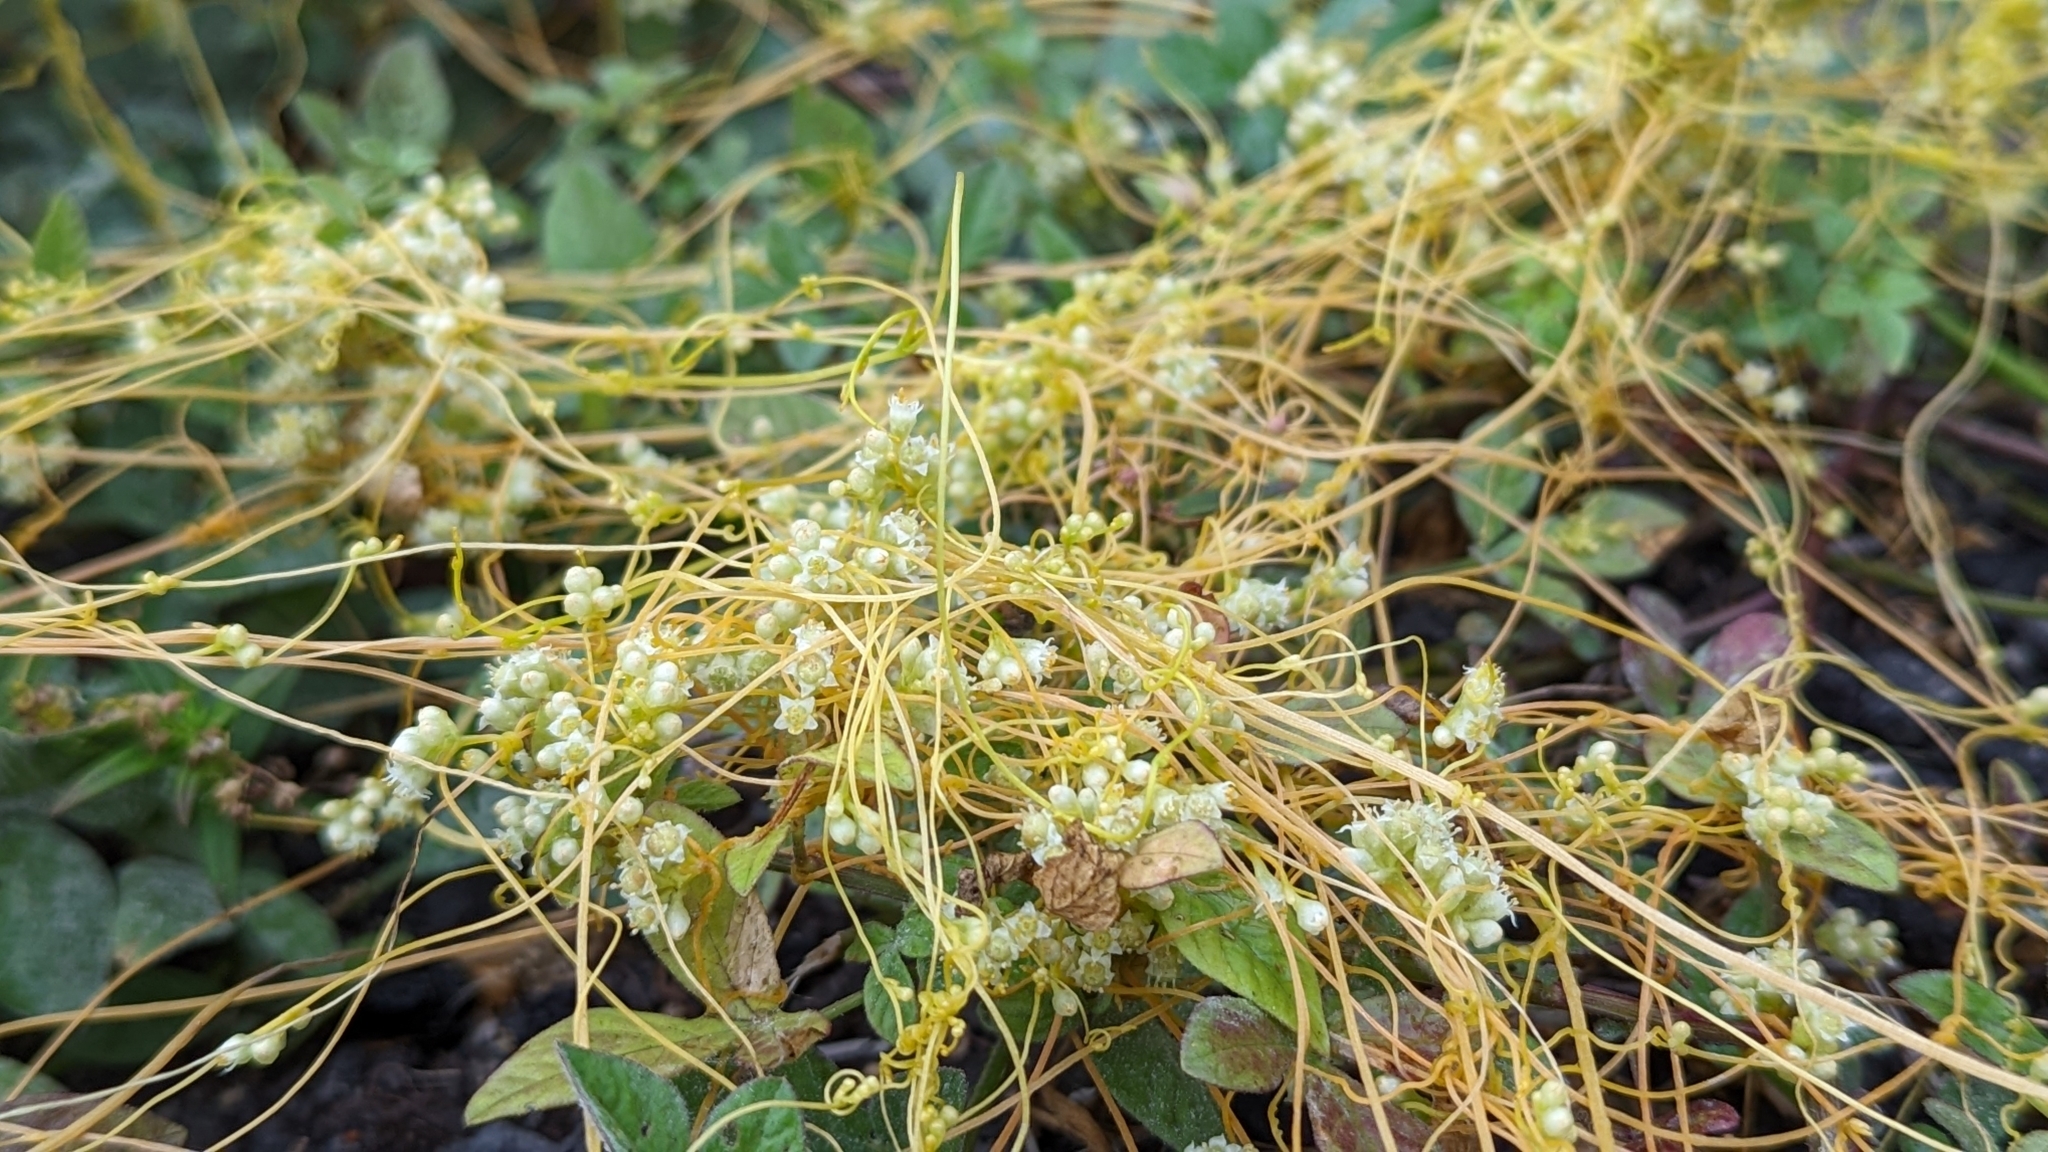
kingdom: Plantae
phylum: Tracheophyta
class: Magnoliopsida
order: Solanales
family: Convolvulaceae
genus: Cuscuta
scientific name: Cuscuta campestris
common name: Yellow dodder
